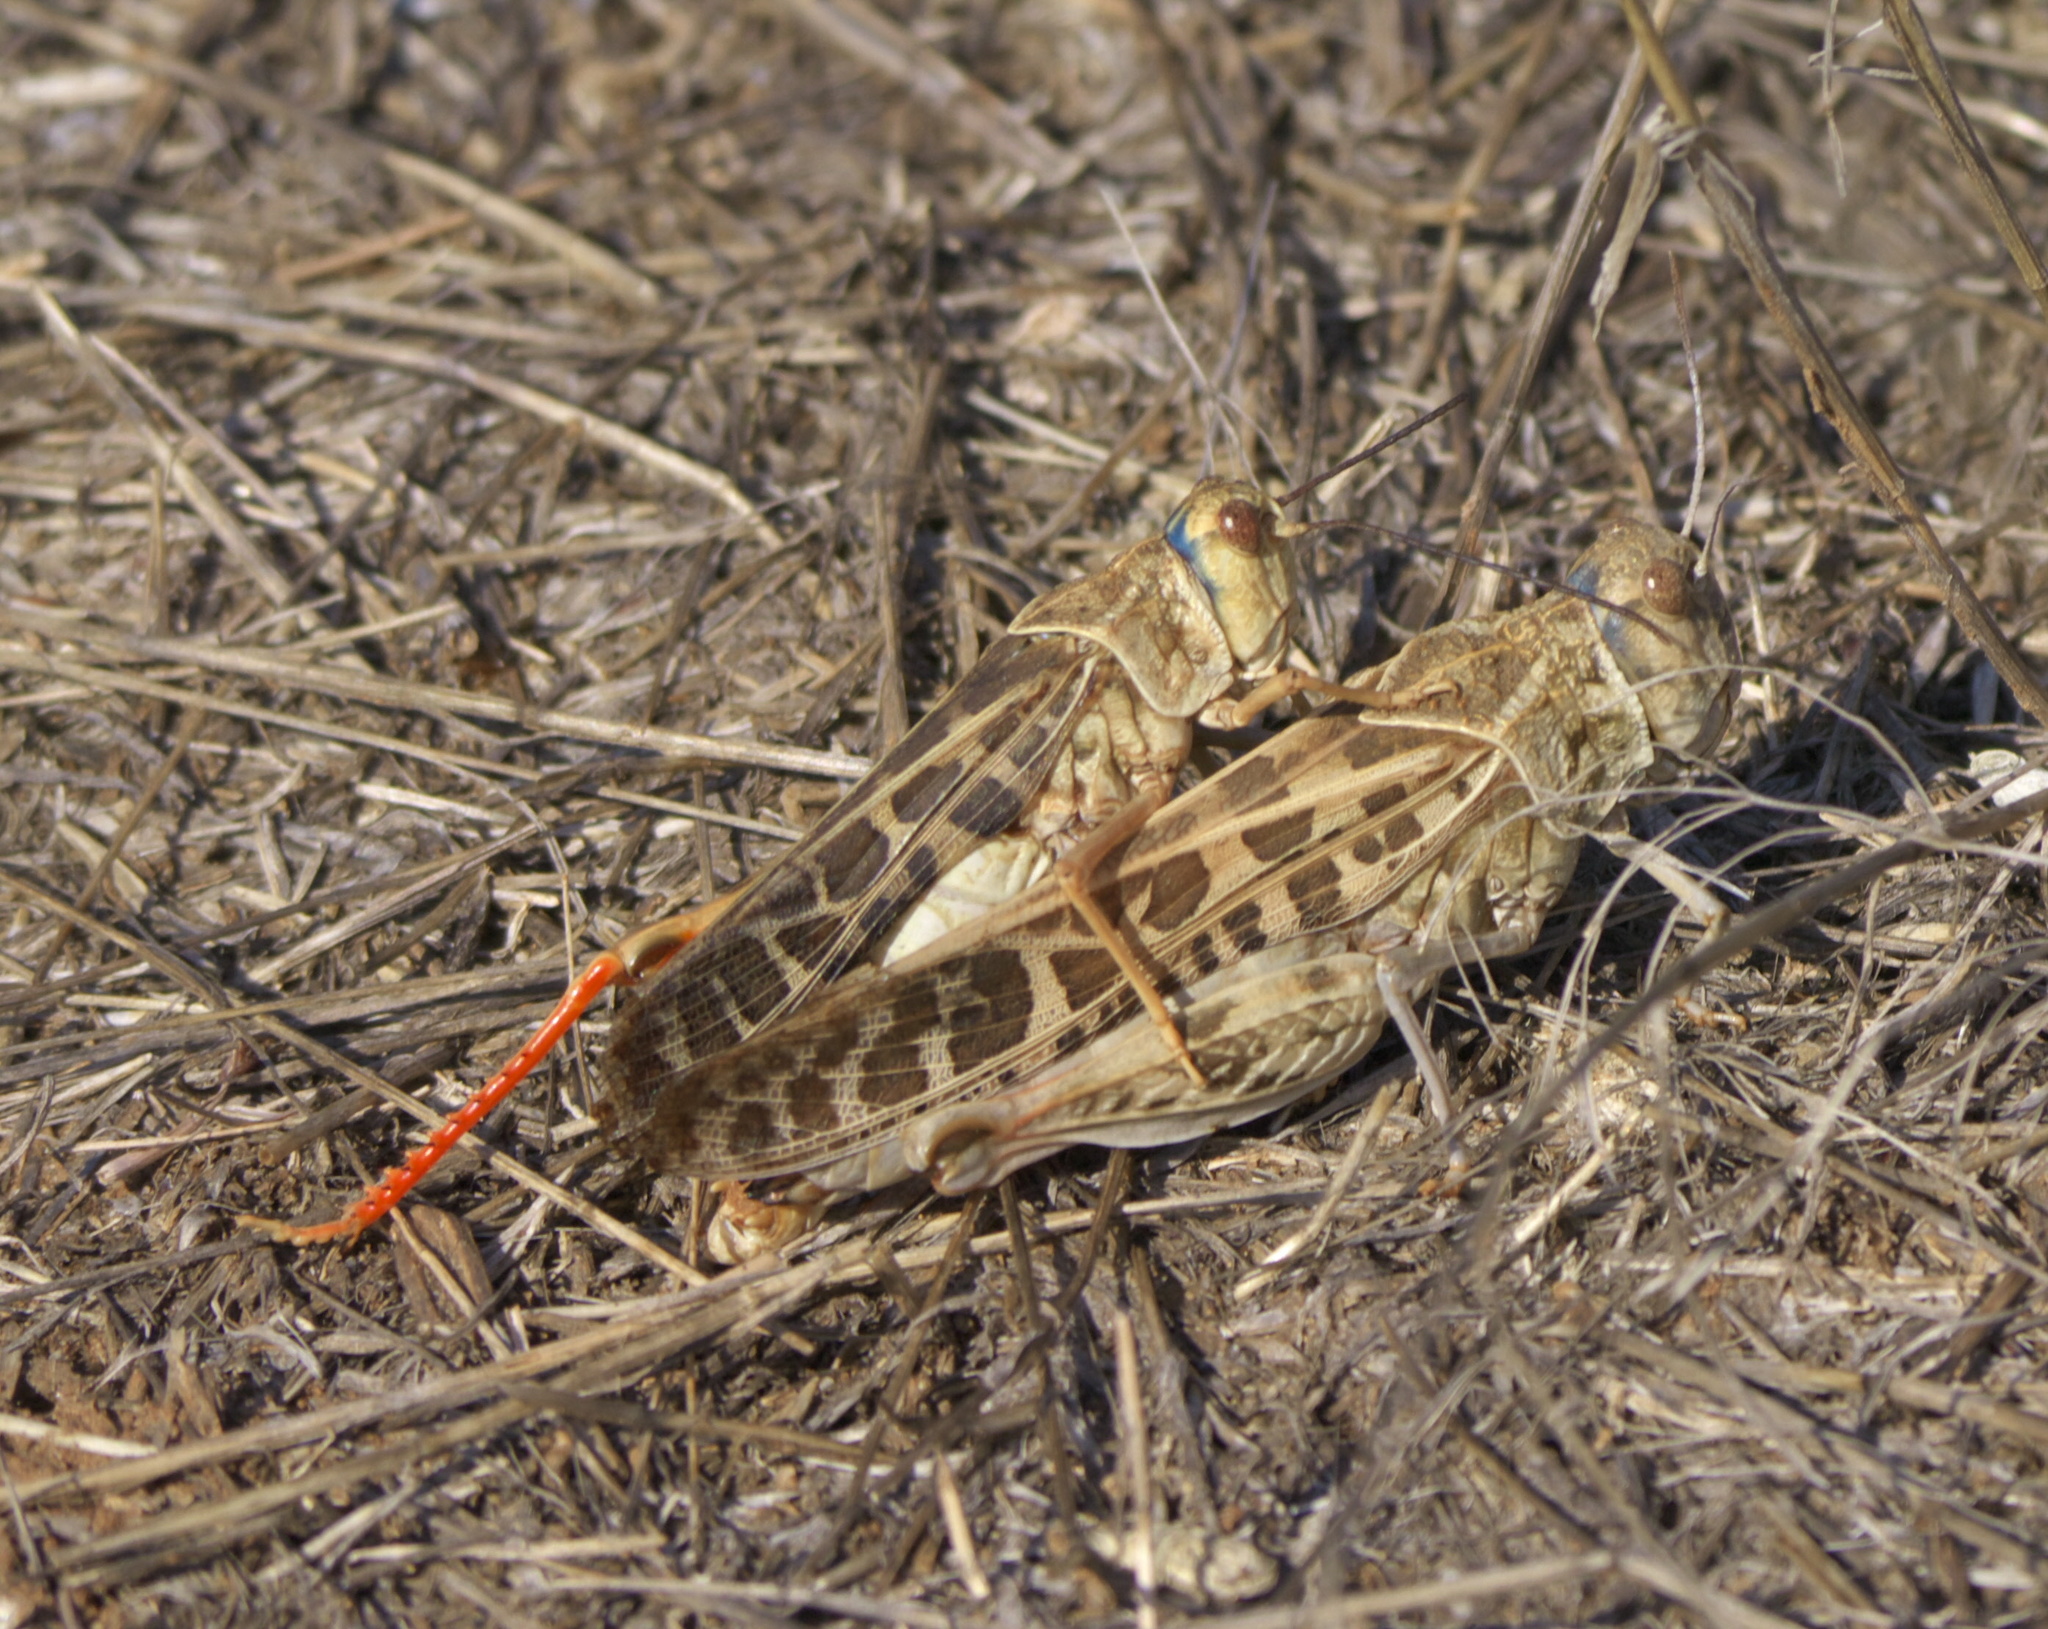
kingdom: Animalia
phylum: Arthropoda
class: Insecta
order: Orthoptera
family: Acrididae
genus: Xanthippus
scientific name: Xanthippus corallipes
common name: Redshanked grasshopper
